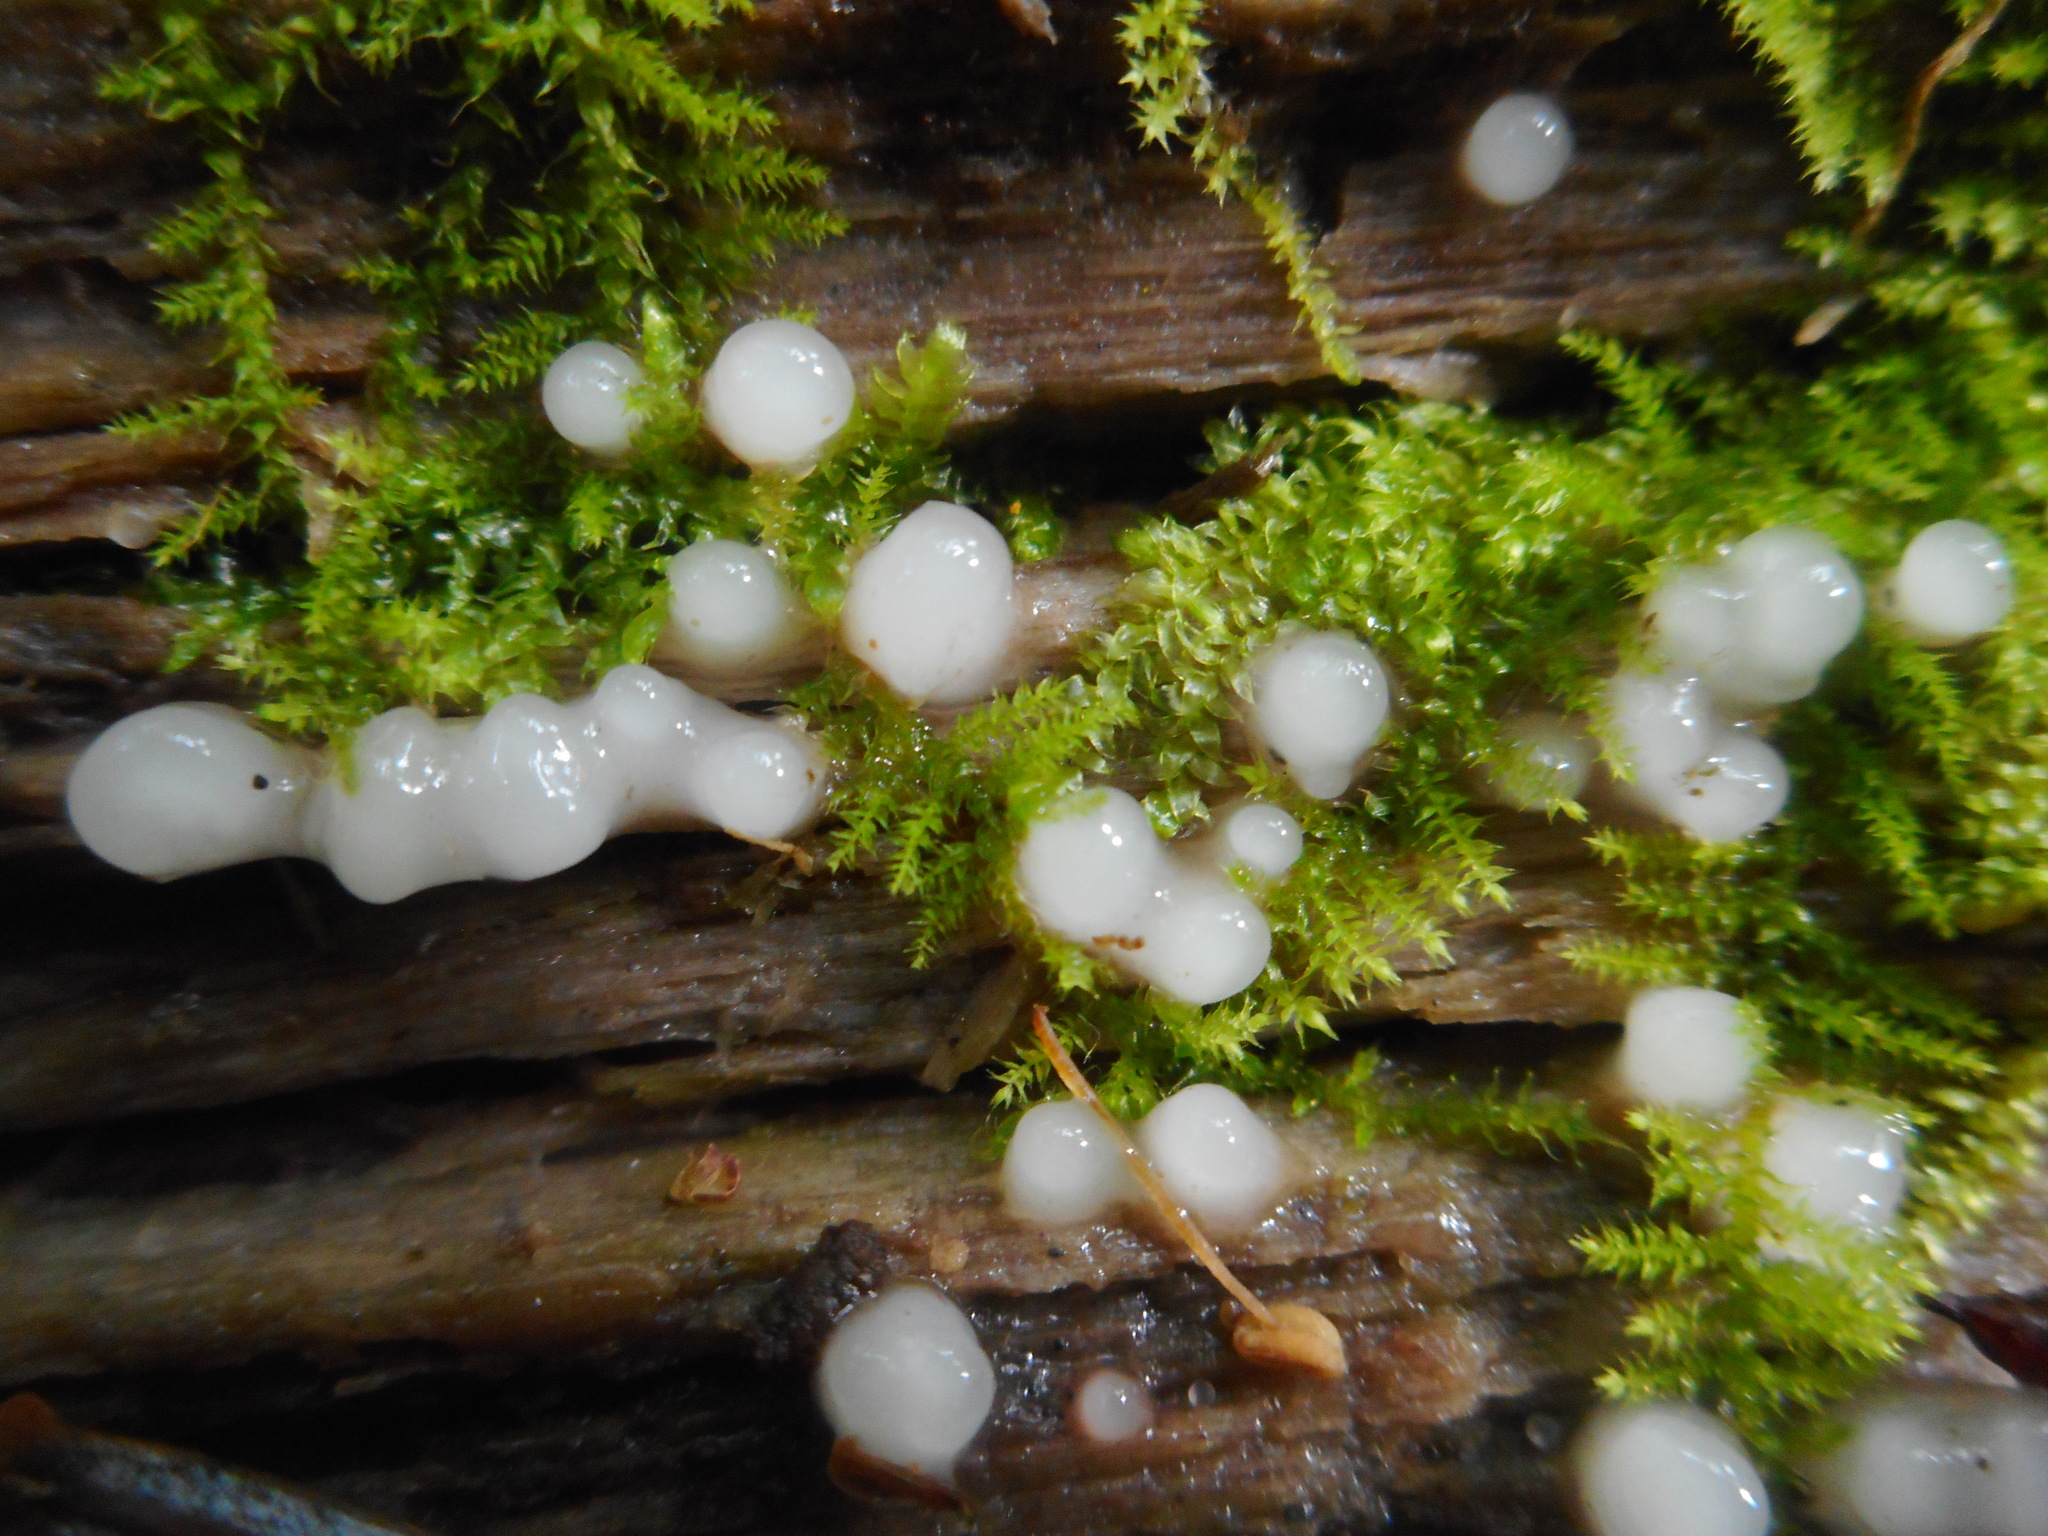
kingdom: Fungi
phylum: Basidiomycota
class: Atractiellomycetes
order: Atractiellales
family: Phleogenaceae
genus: Helicogloea
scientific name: Helicogloea compressa
